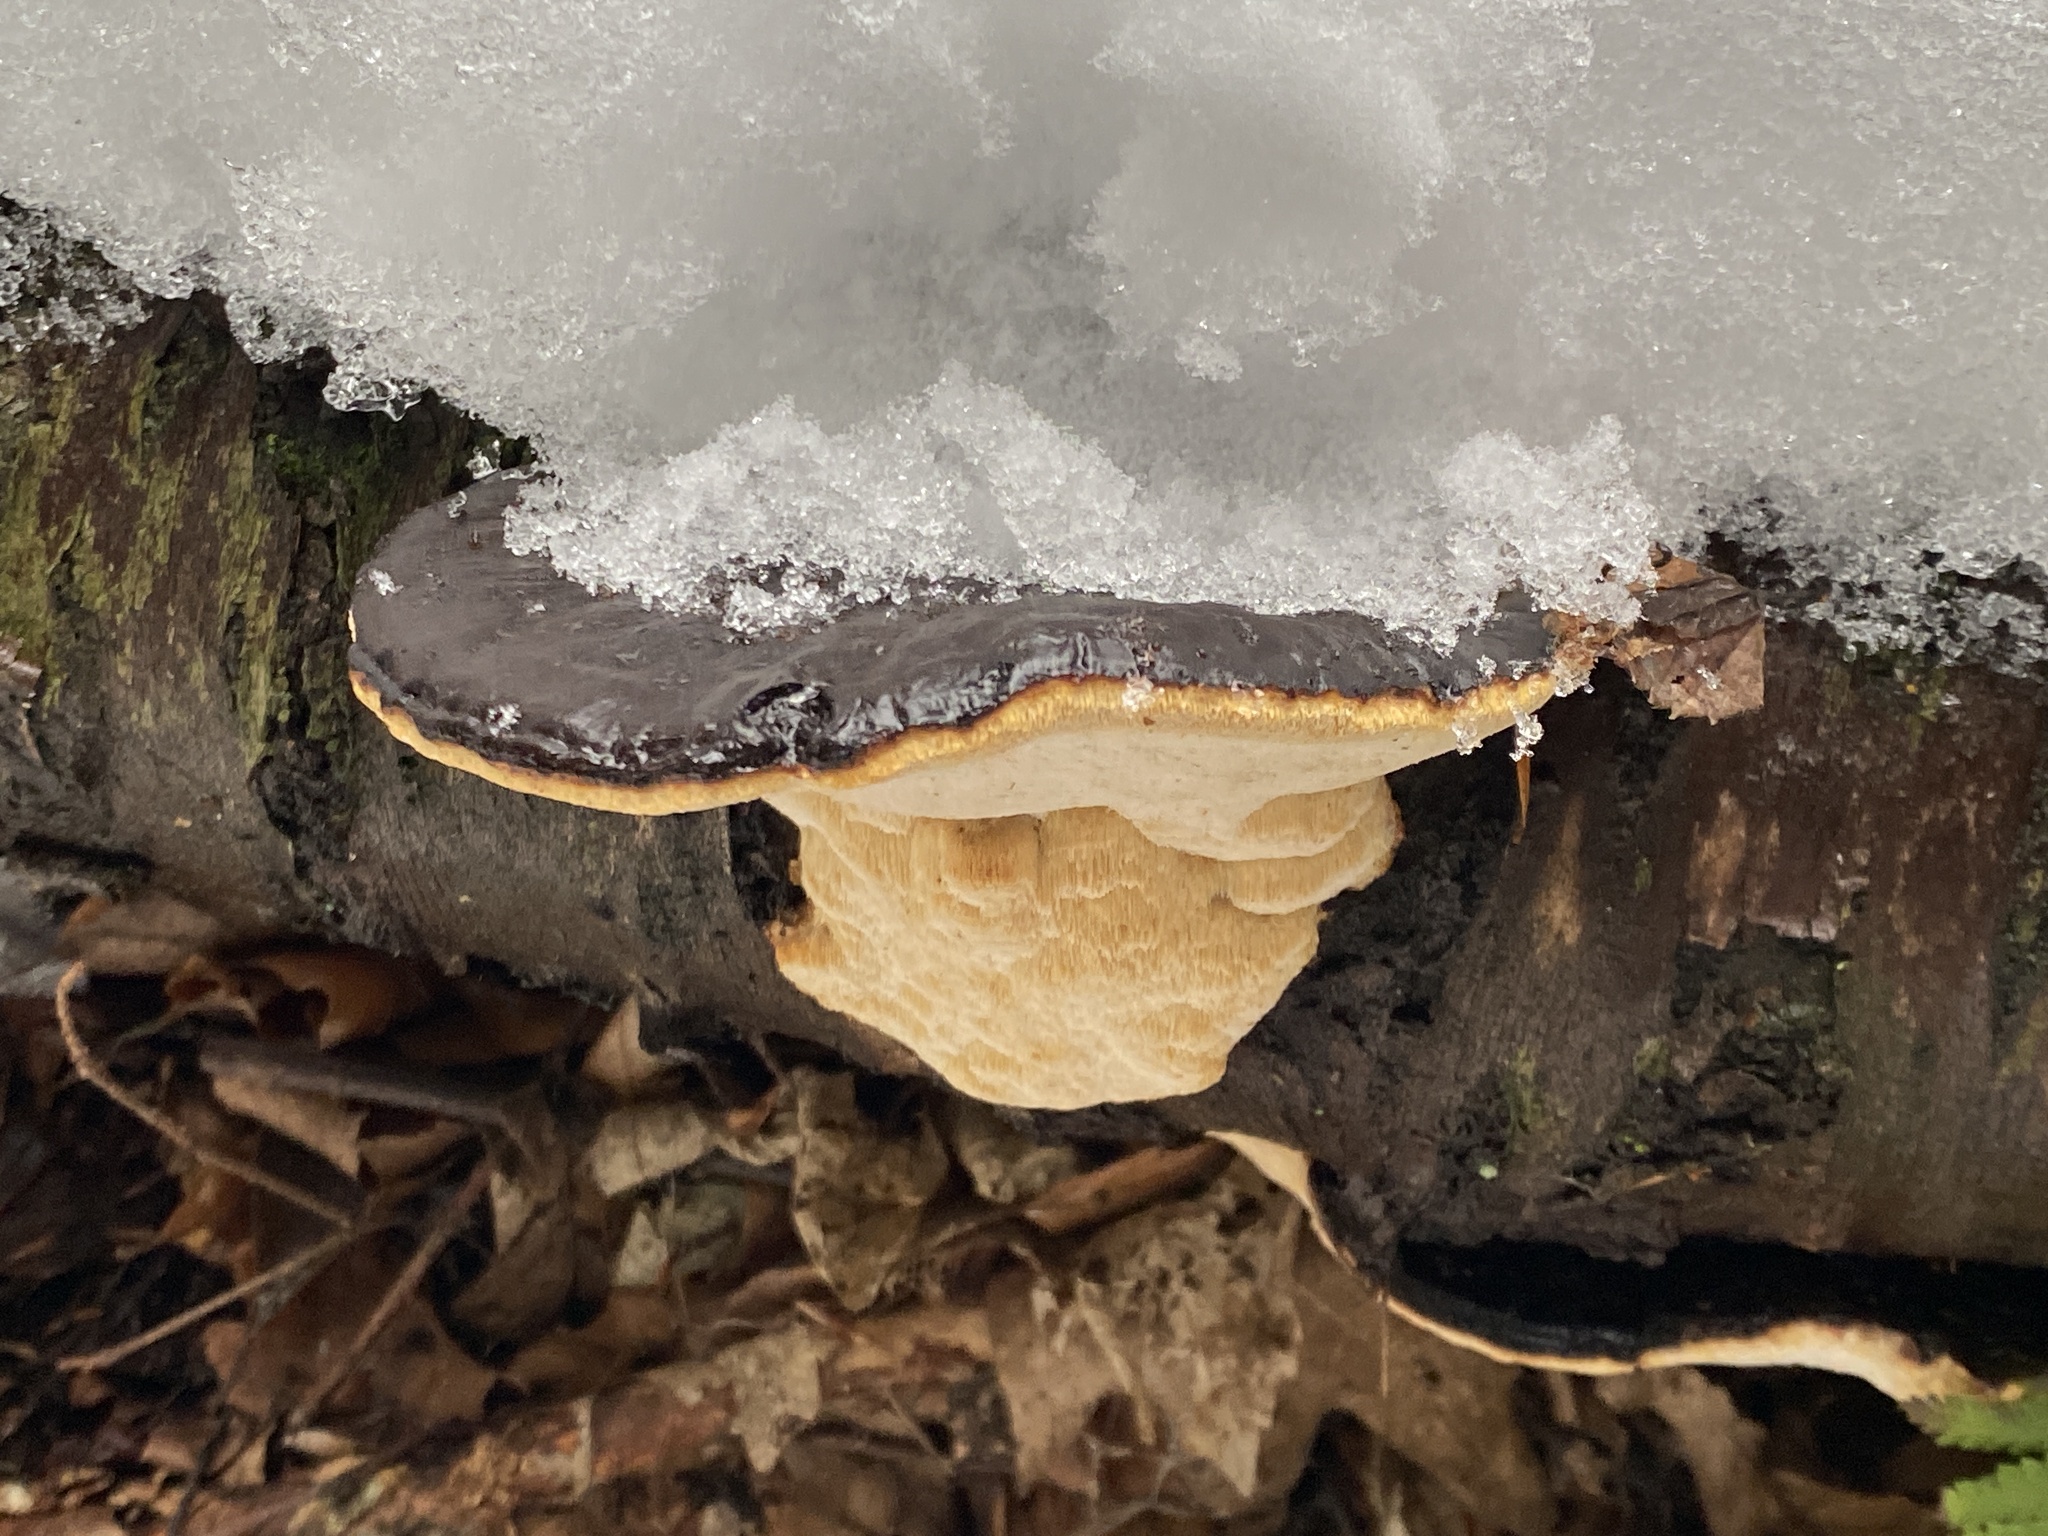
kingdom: Fungi
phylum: Basidiomycota
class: Agaricomycetes
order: Polyporales
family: Fomitopsidaceae
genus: Fomitopsis
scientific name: Fomitopsis pinicola
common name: Red-belted bracket
